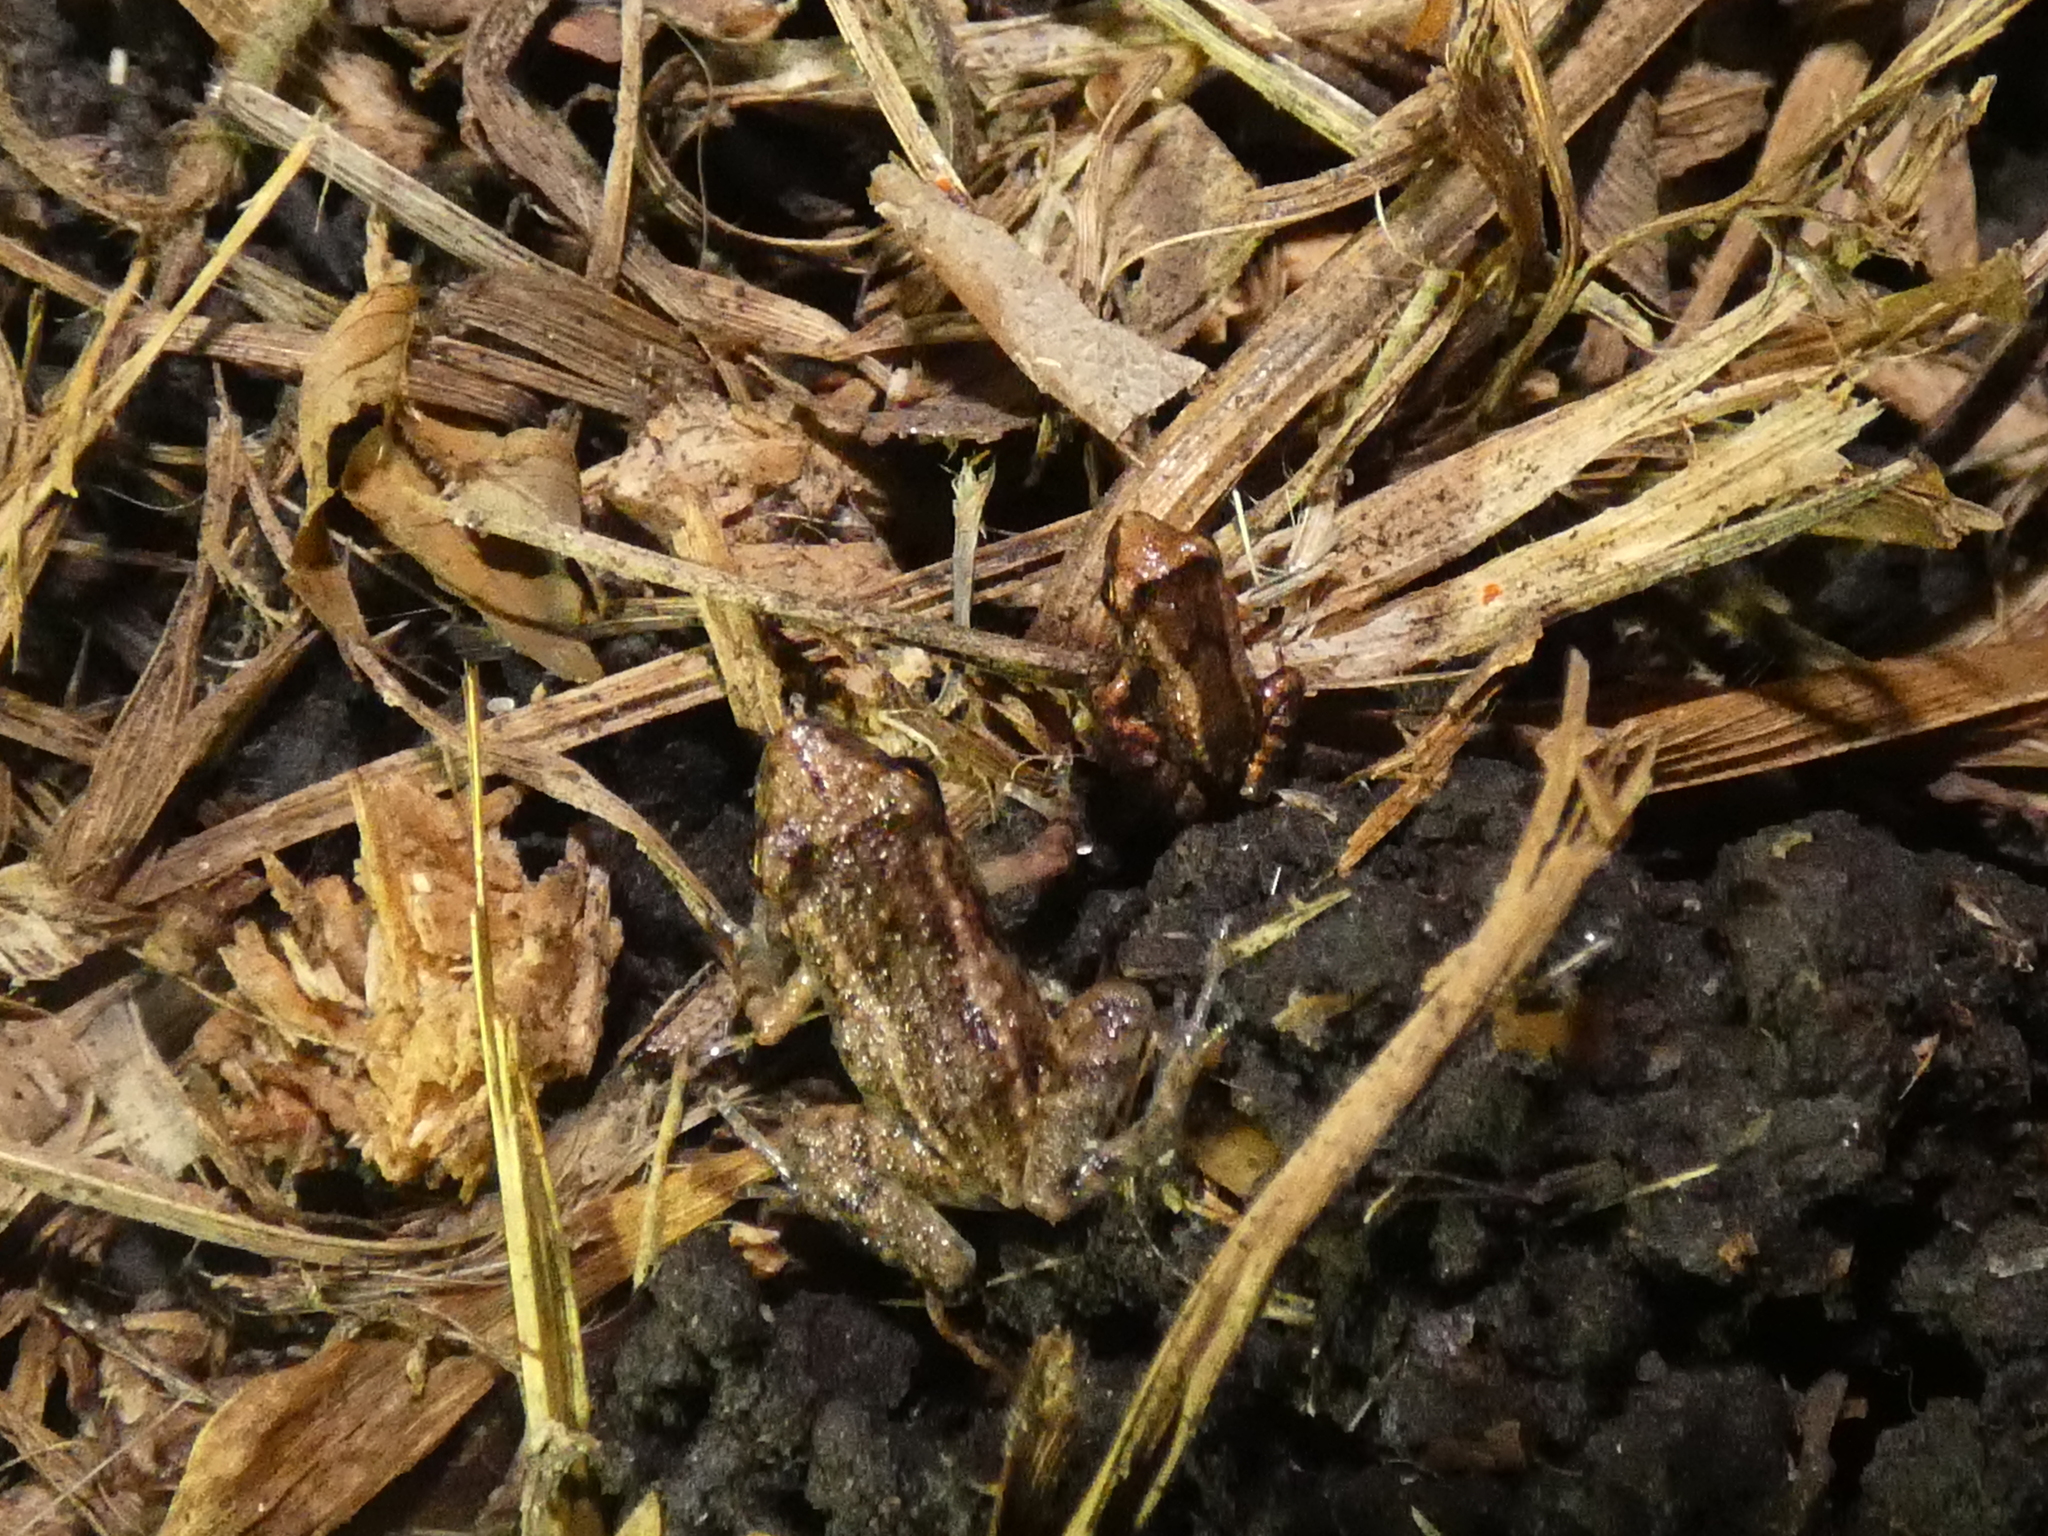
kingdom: Animalia
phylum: Chordata
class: Amphibia
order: Anura
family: Eleutherodactylidae
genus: Eleutherodactylus
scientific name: Eleutherodactylus planirostris
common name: Greenhouse frog
